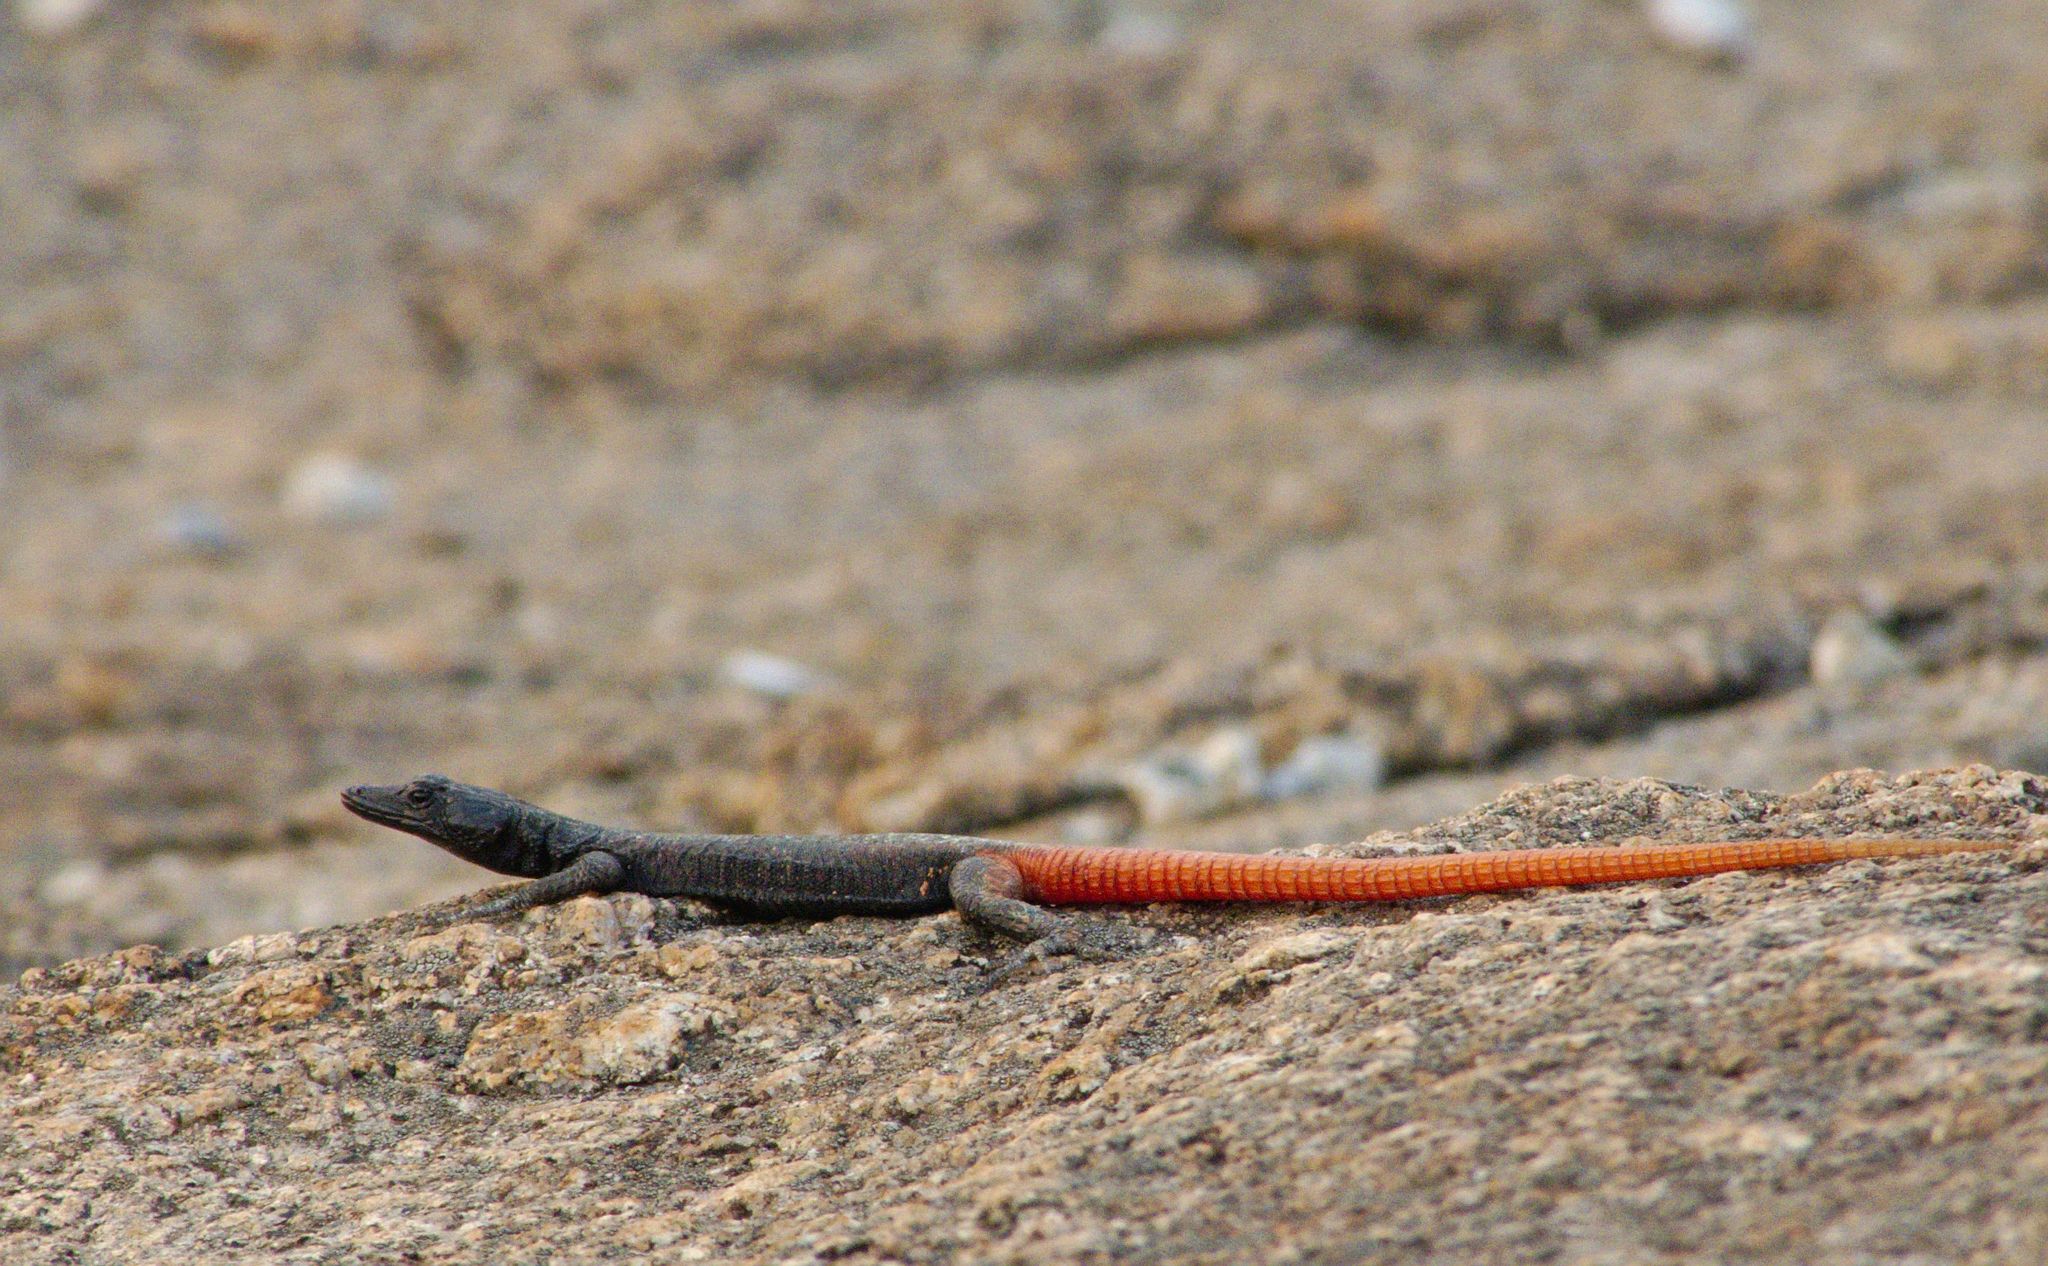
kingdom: Animalia
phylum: Chordata
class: Squamata
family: Cordylidae
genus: Platysaurus
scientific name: Platysaurus intermedius
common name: Common flat lizard
